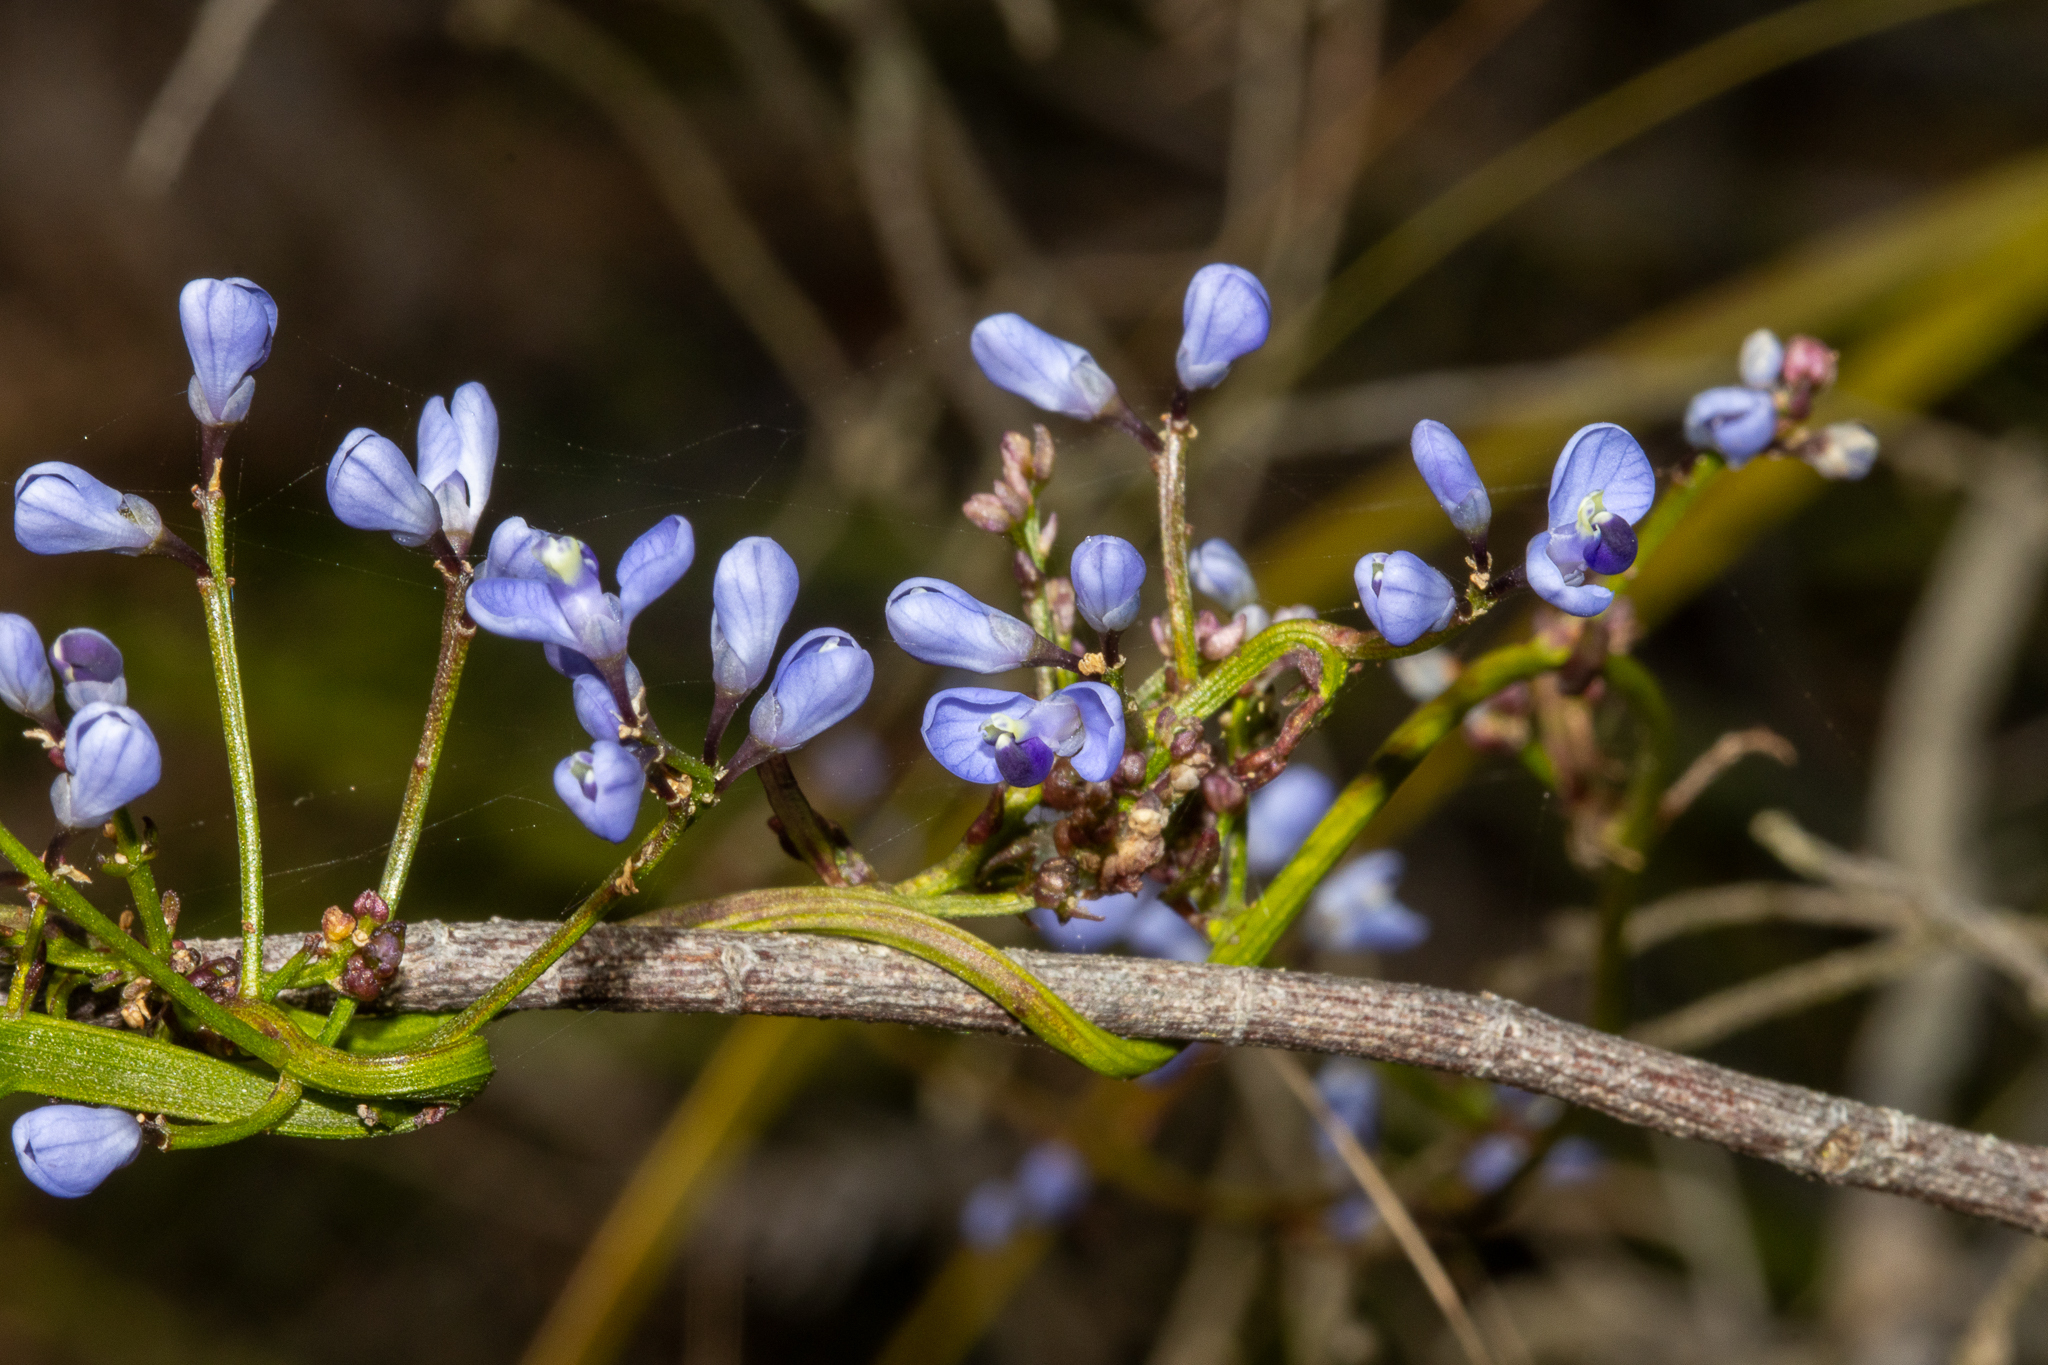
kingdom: Plantae
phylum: Tracheophyta
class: Magnoliopsida
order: Fabales
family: Polygalaceae
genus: Comesperma
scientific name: Comesperma volubile
